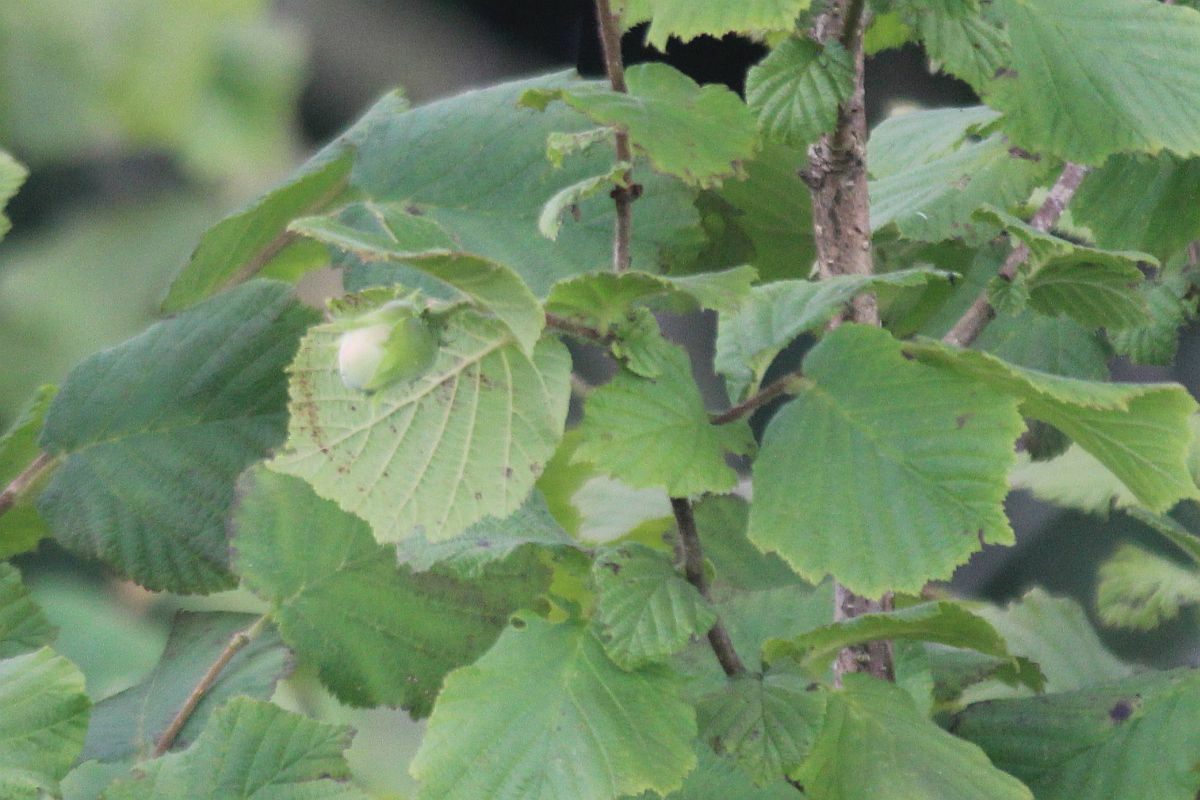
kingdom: Plantae
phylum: Tracheophyta
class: Magnoliopsida
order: Fagales
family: Betulaceae
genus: Corylus
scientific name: Corylus avellana
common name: European hazel
